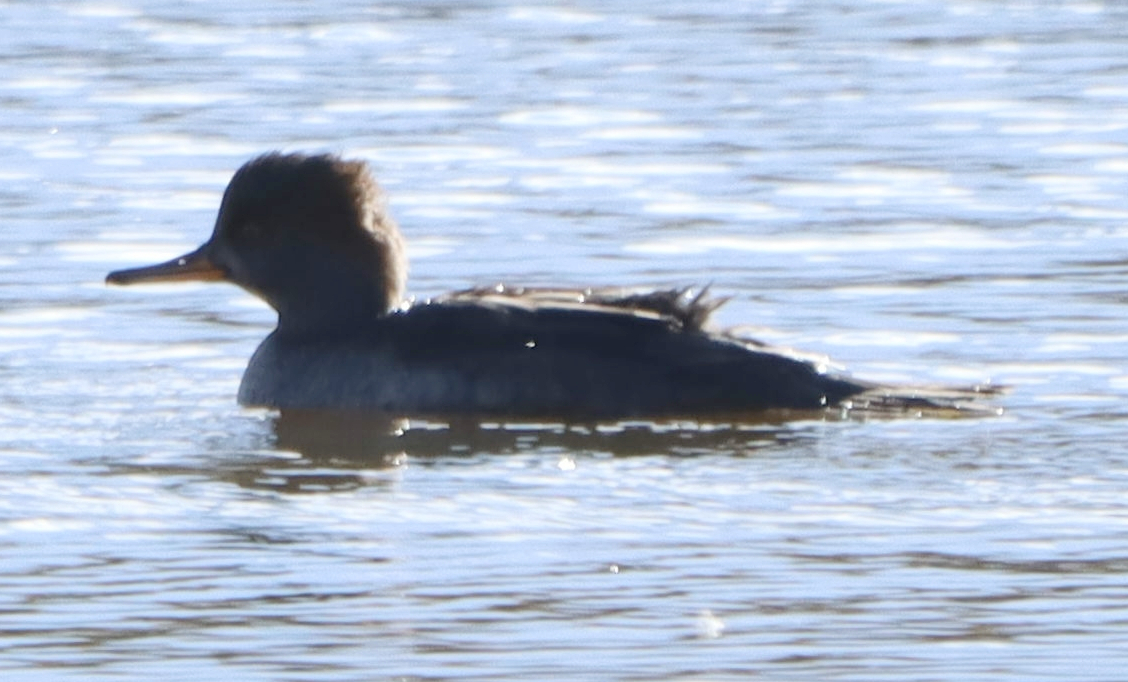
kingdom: Animalia
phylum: Chordata
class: Aves
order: Anseriformes
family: Anatidae
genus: Lophodytes
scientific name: Lophodytes cucullatus
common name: Hooded merganser
